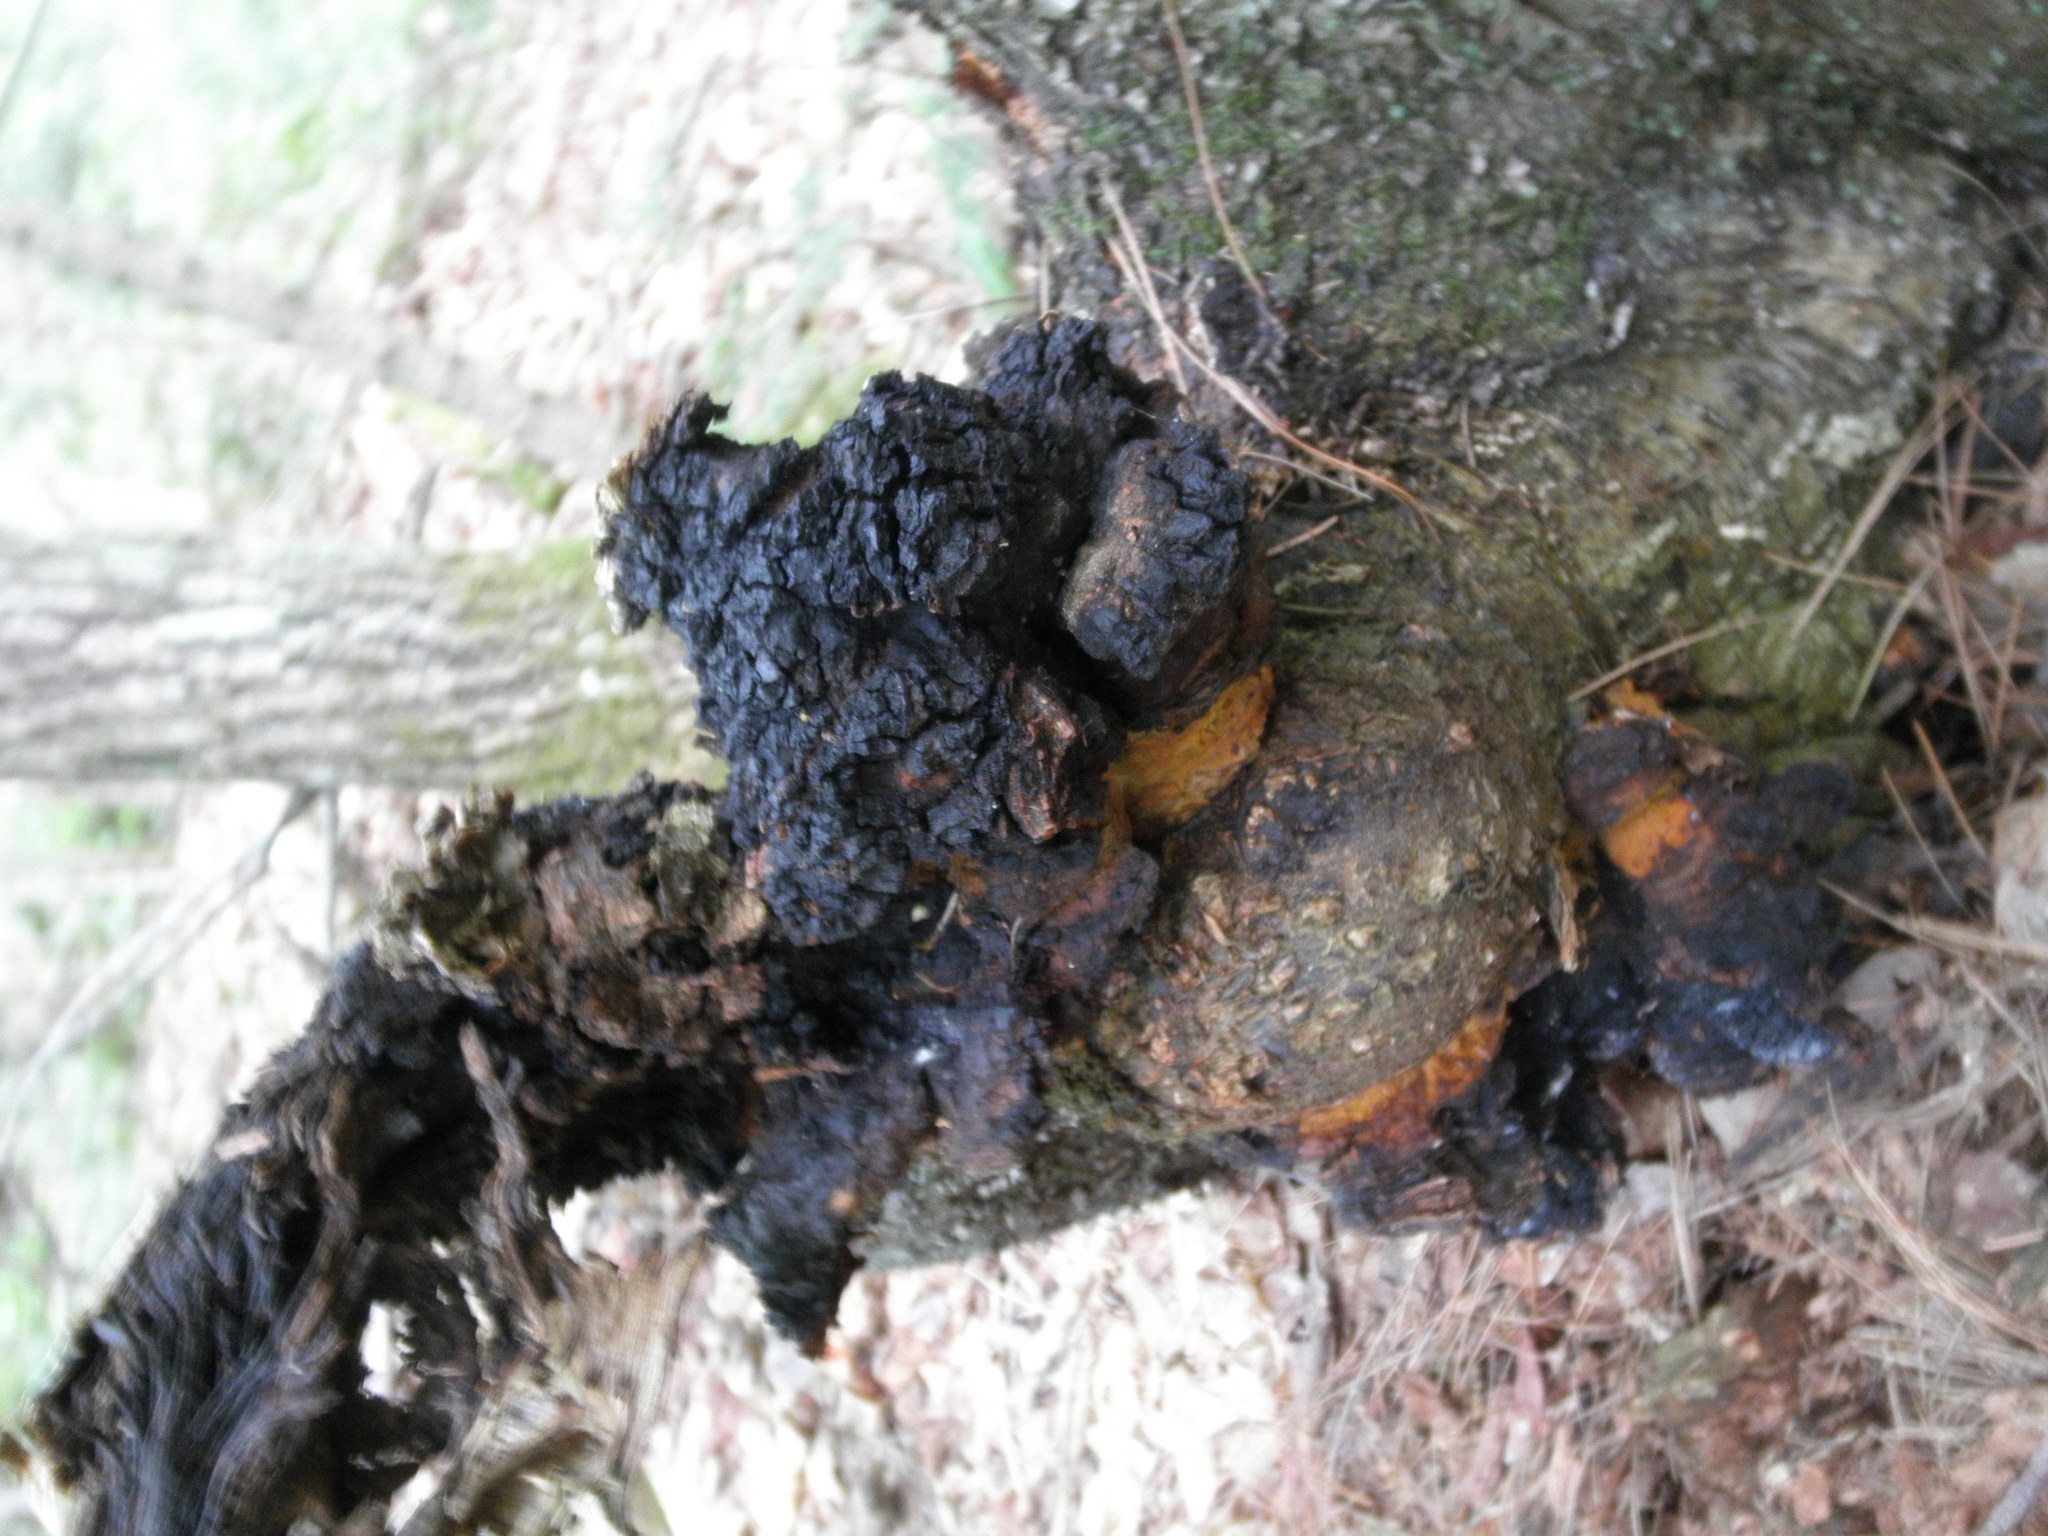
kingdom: Fungi
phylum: Basidiomycota
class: Agaricomycetes
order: Hymenochaetales
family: Hymenochaetaceae
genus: Inonotus
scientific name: Inonotus obliquus
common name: Chaga
